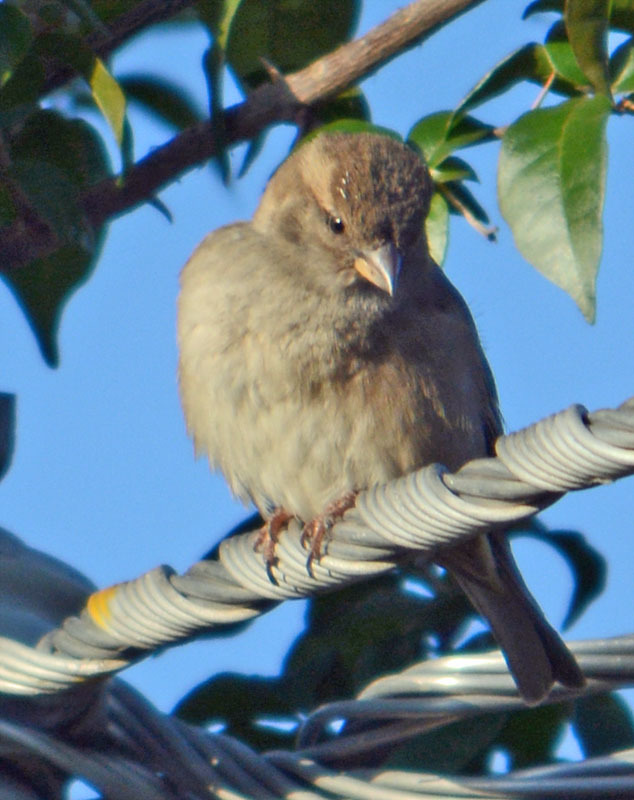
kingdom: Animalia
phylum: Chordata
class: Aves
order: Passeriformes
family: Passeridae
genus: Passer
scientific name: Passer domesticus
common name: House sparrow
